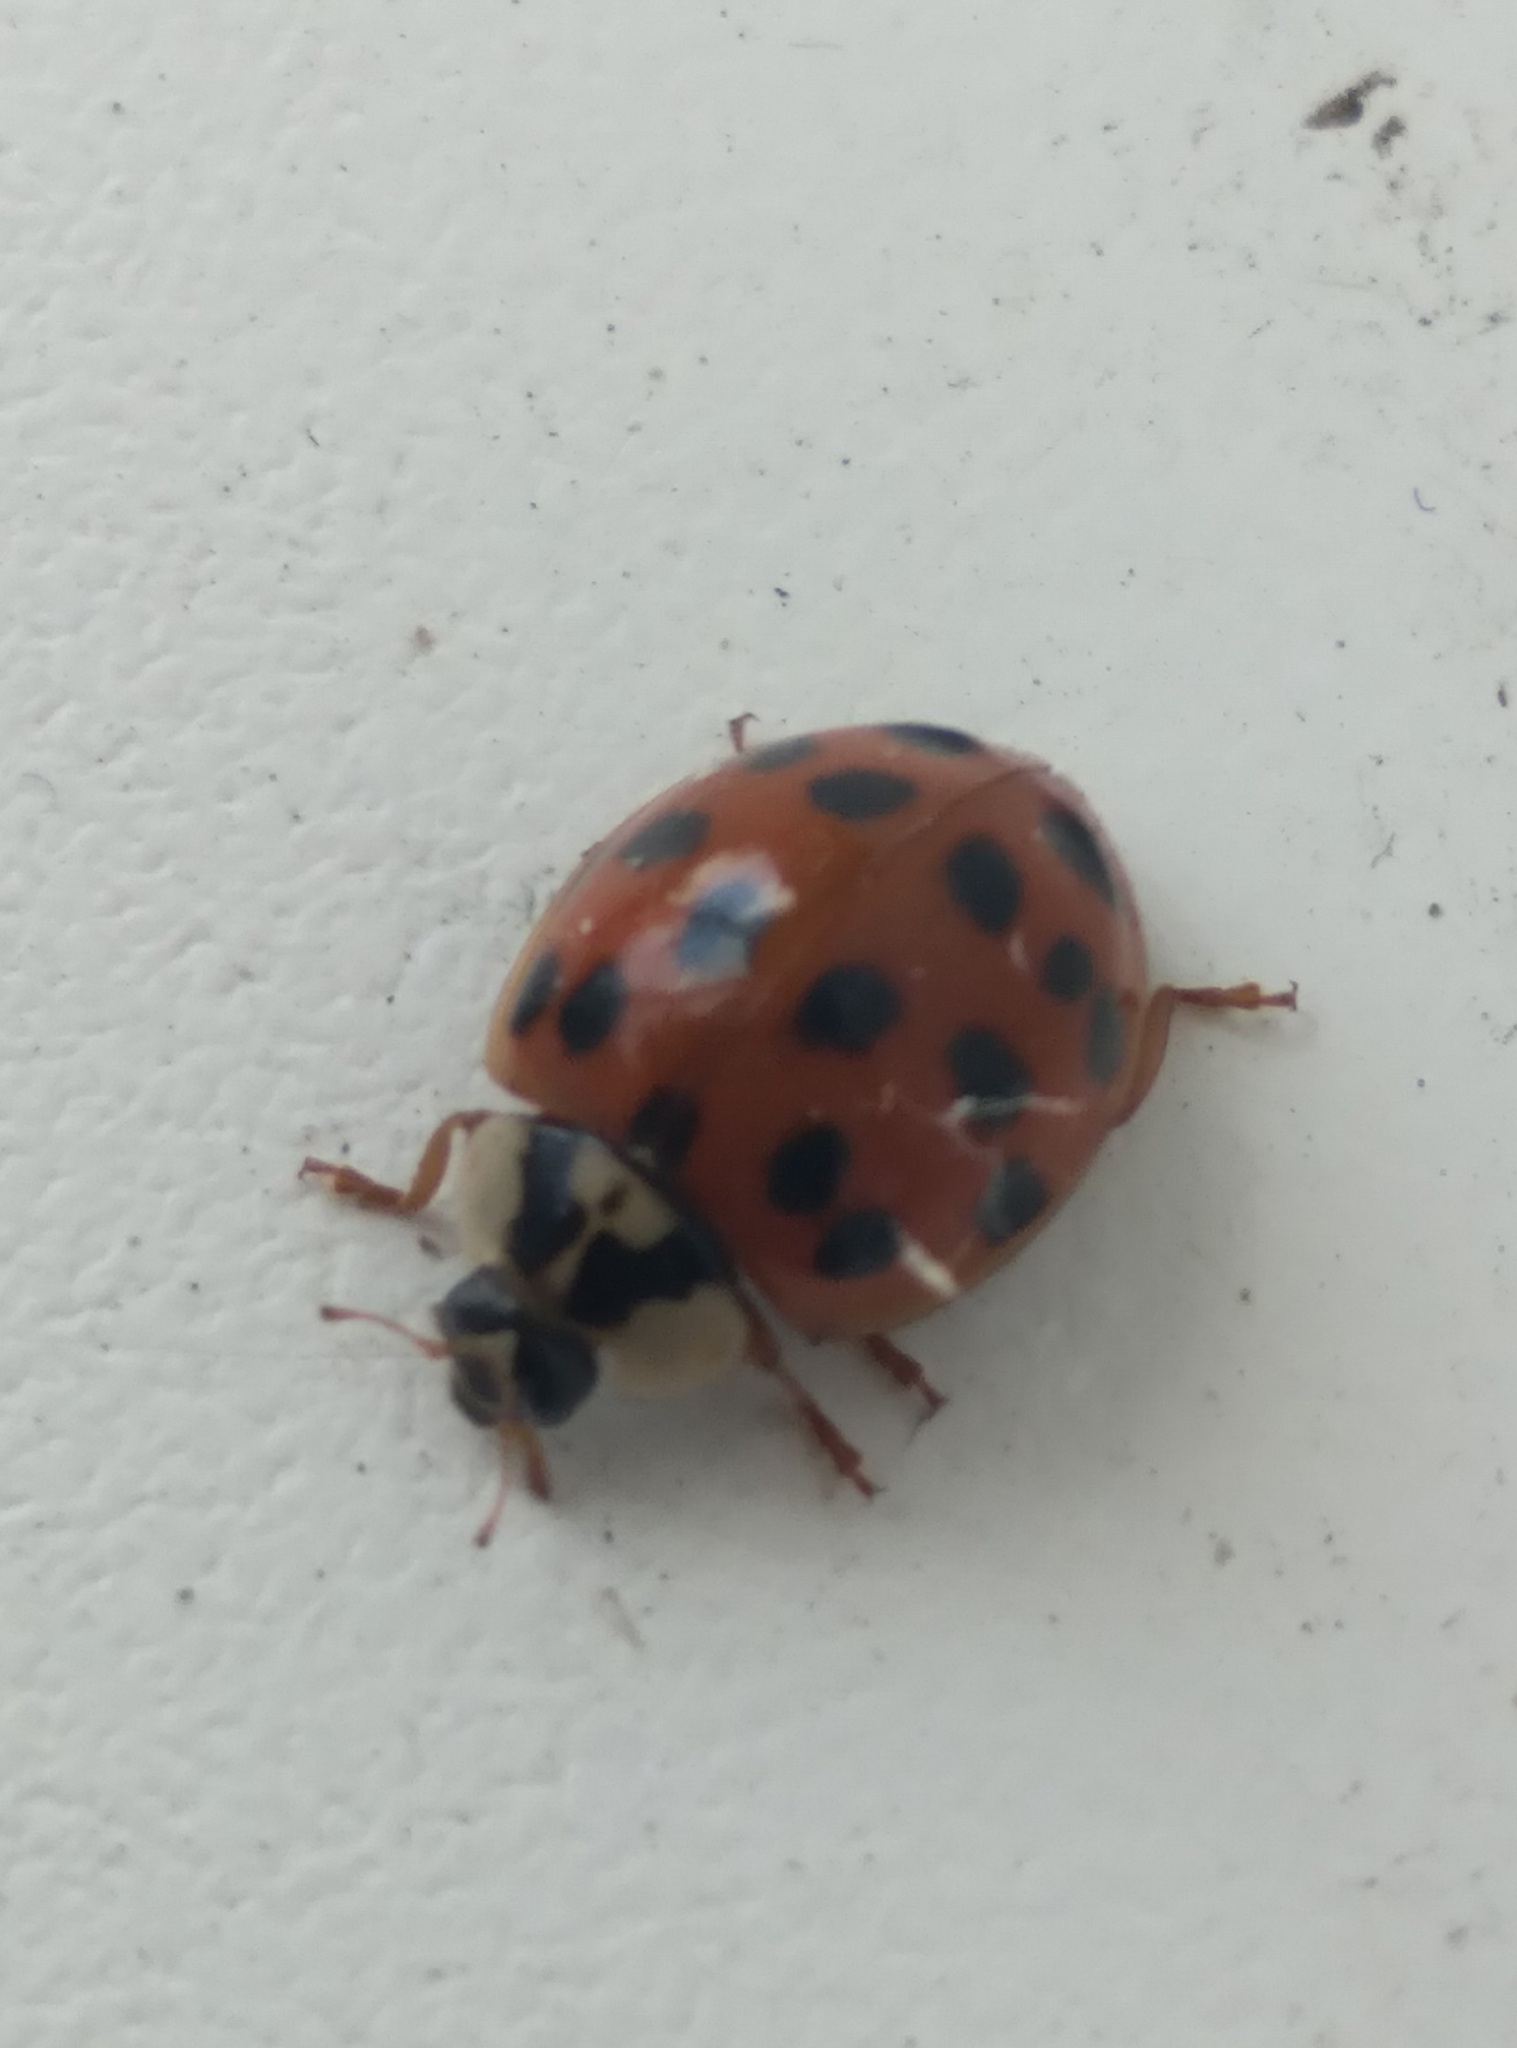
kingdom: Animalia
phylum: Arthropoda
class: Insecta
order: Coleoptera
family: Coccinellidae
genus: Harmonia
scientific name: Harmonia axyridis
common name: Harlequin ladybird
